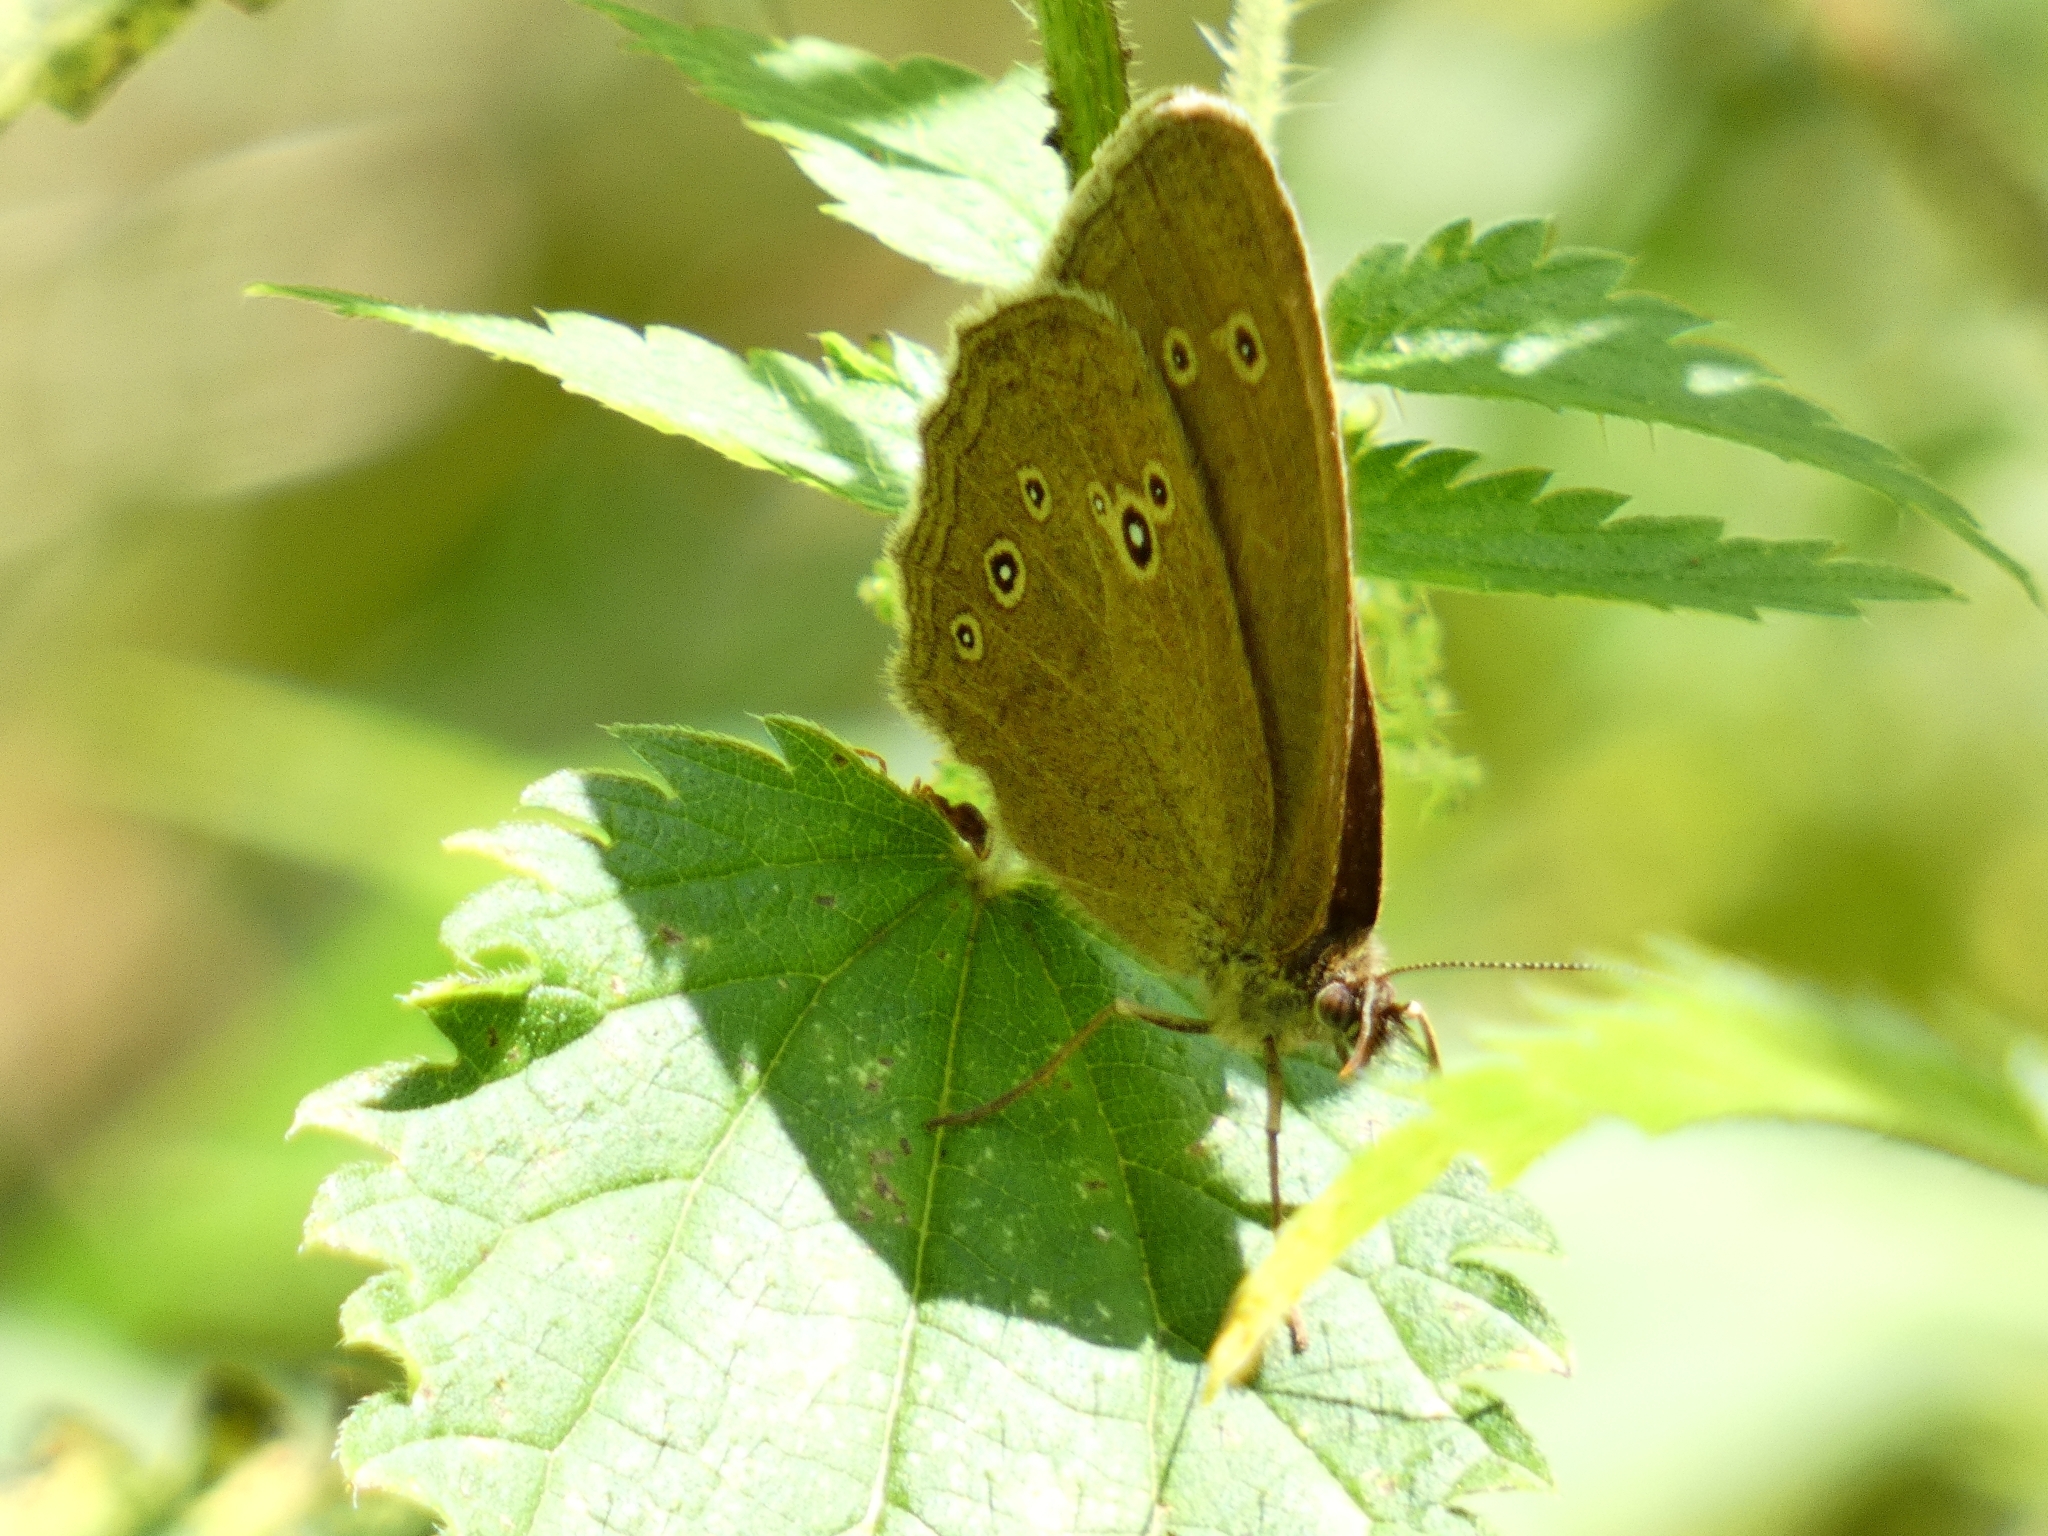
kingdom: Animalia
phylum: Arthropoda
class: Insecta
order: Lepidoptera
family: Nymphalidae
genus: Aphantopus
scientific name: Aphantopus hyperantus
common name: Ringlet
